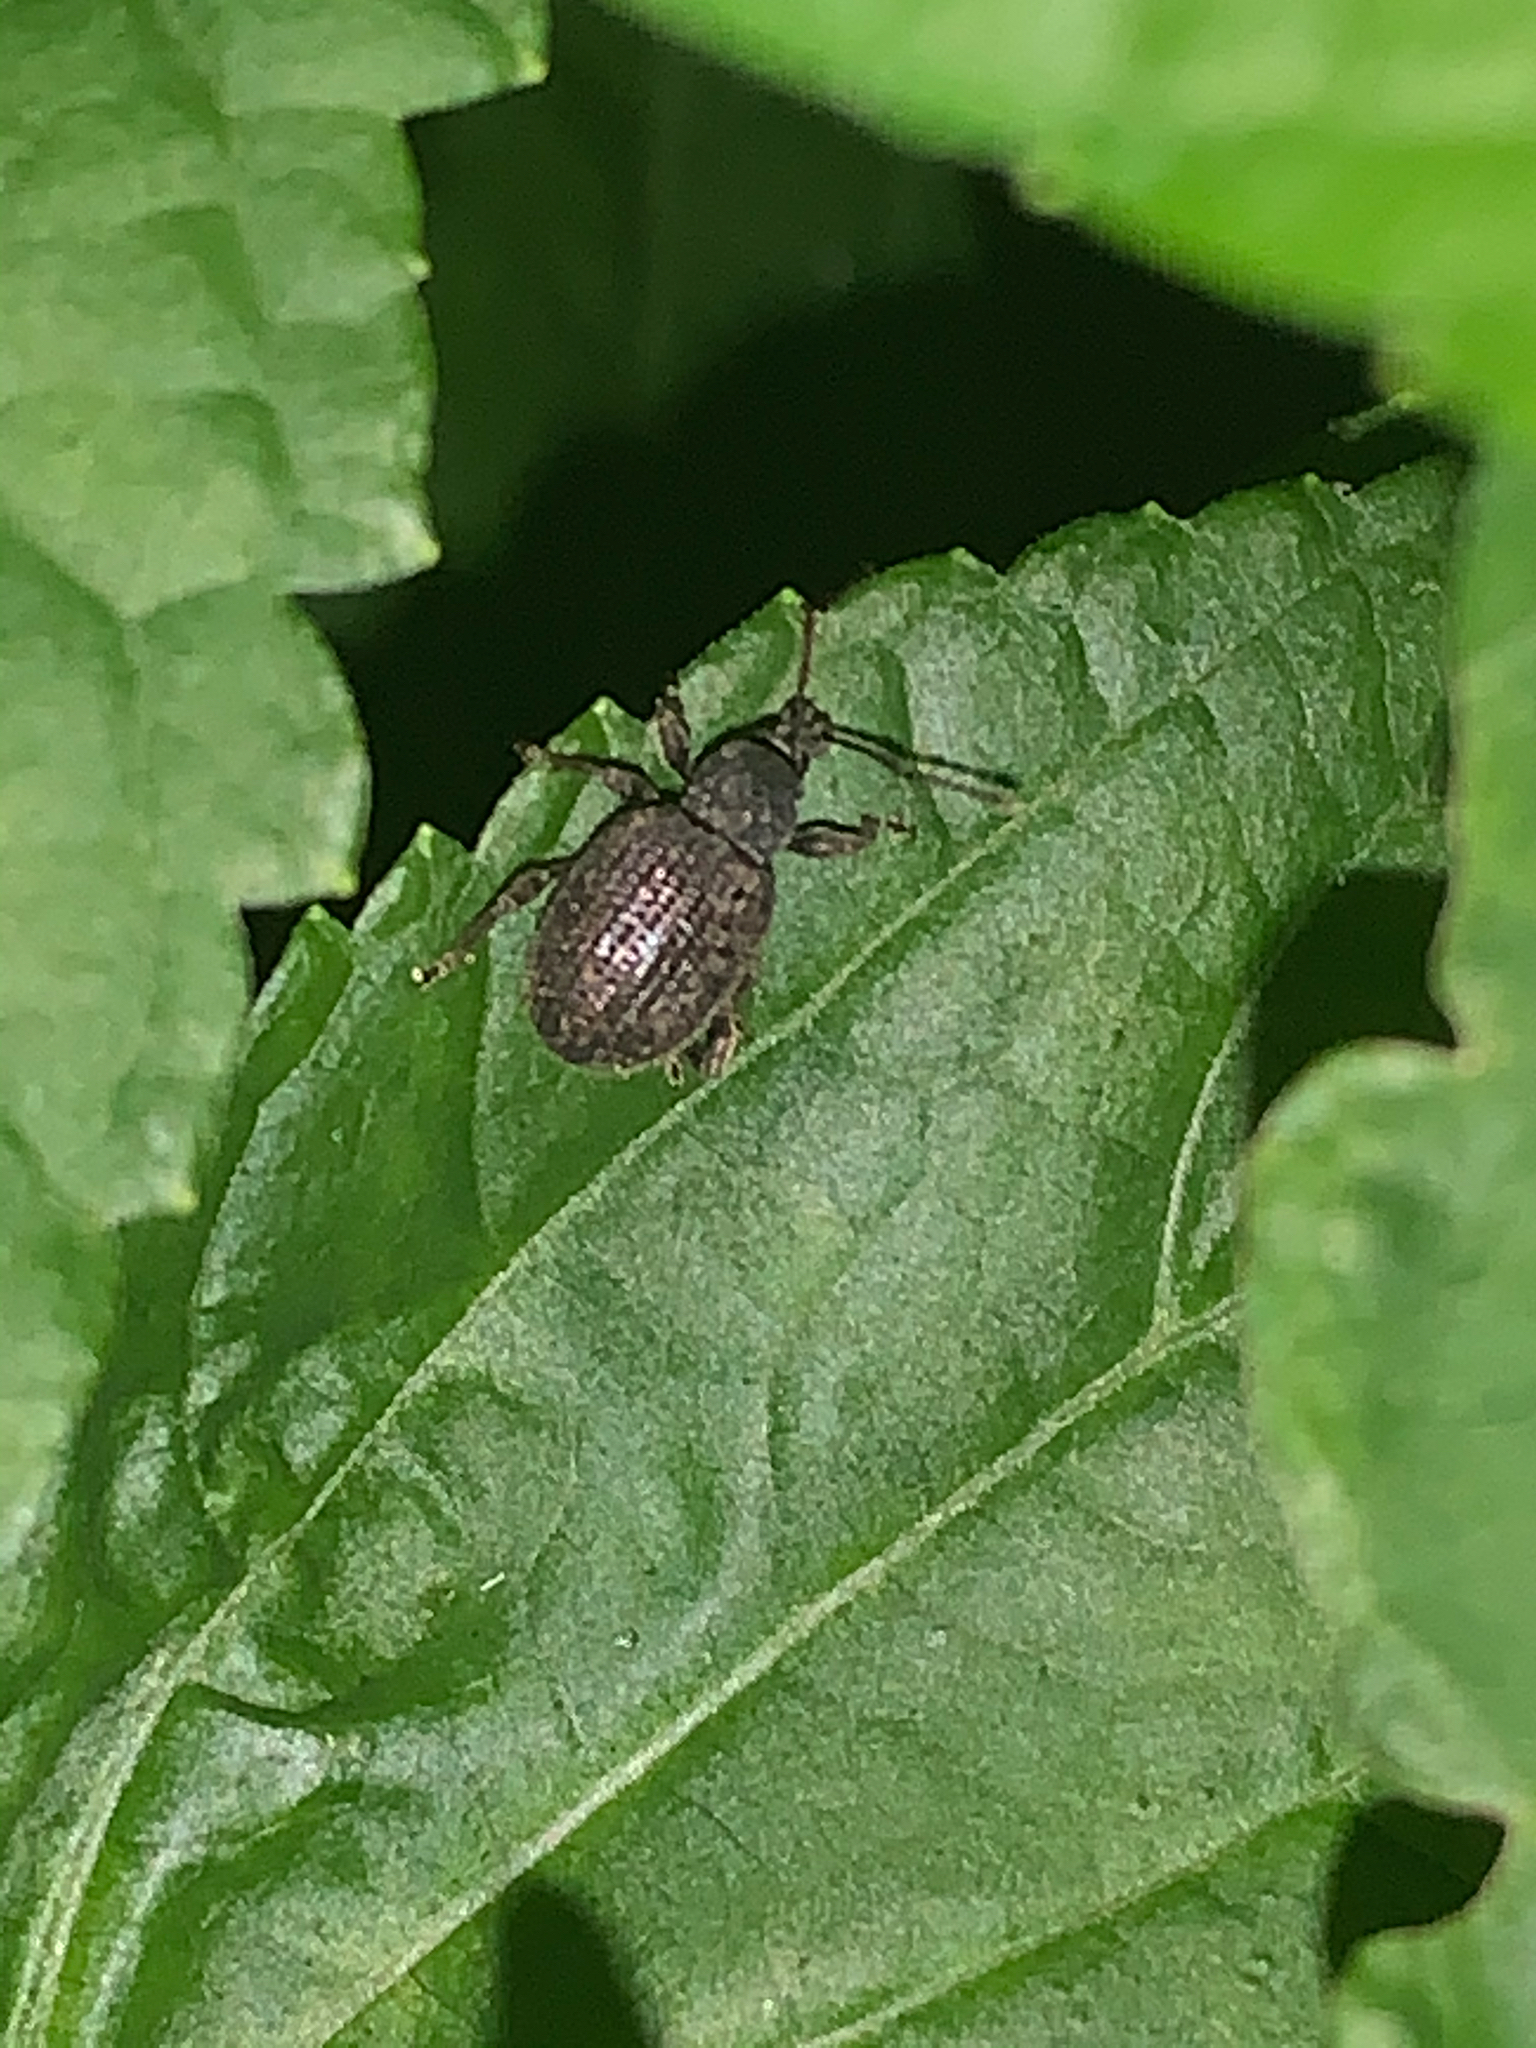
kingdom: Animalia
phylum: Arthropoda
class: Insecta
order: Coleoptera
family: Curculionidae
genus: Otiorhynchus
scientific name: Otiorhynchus sulcatus
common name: Black vine weevil
